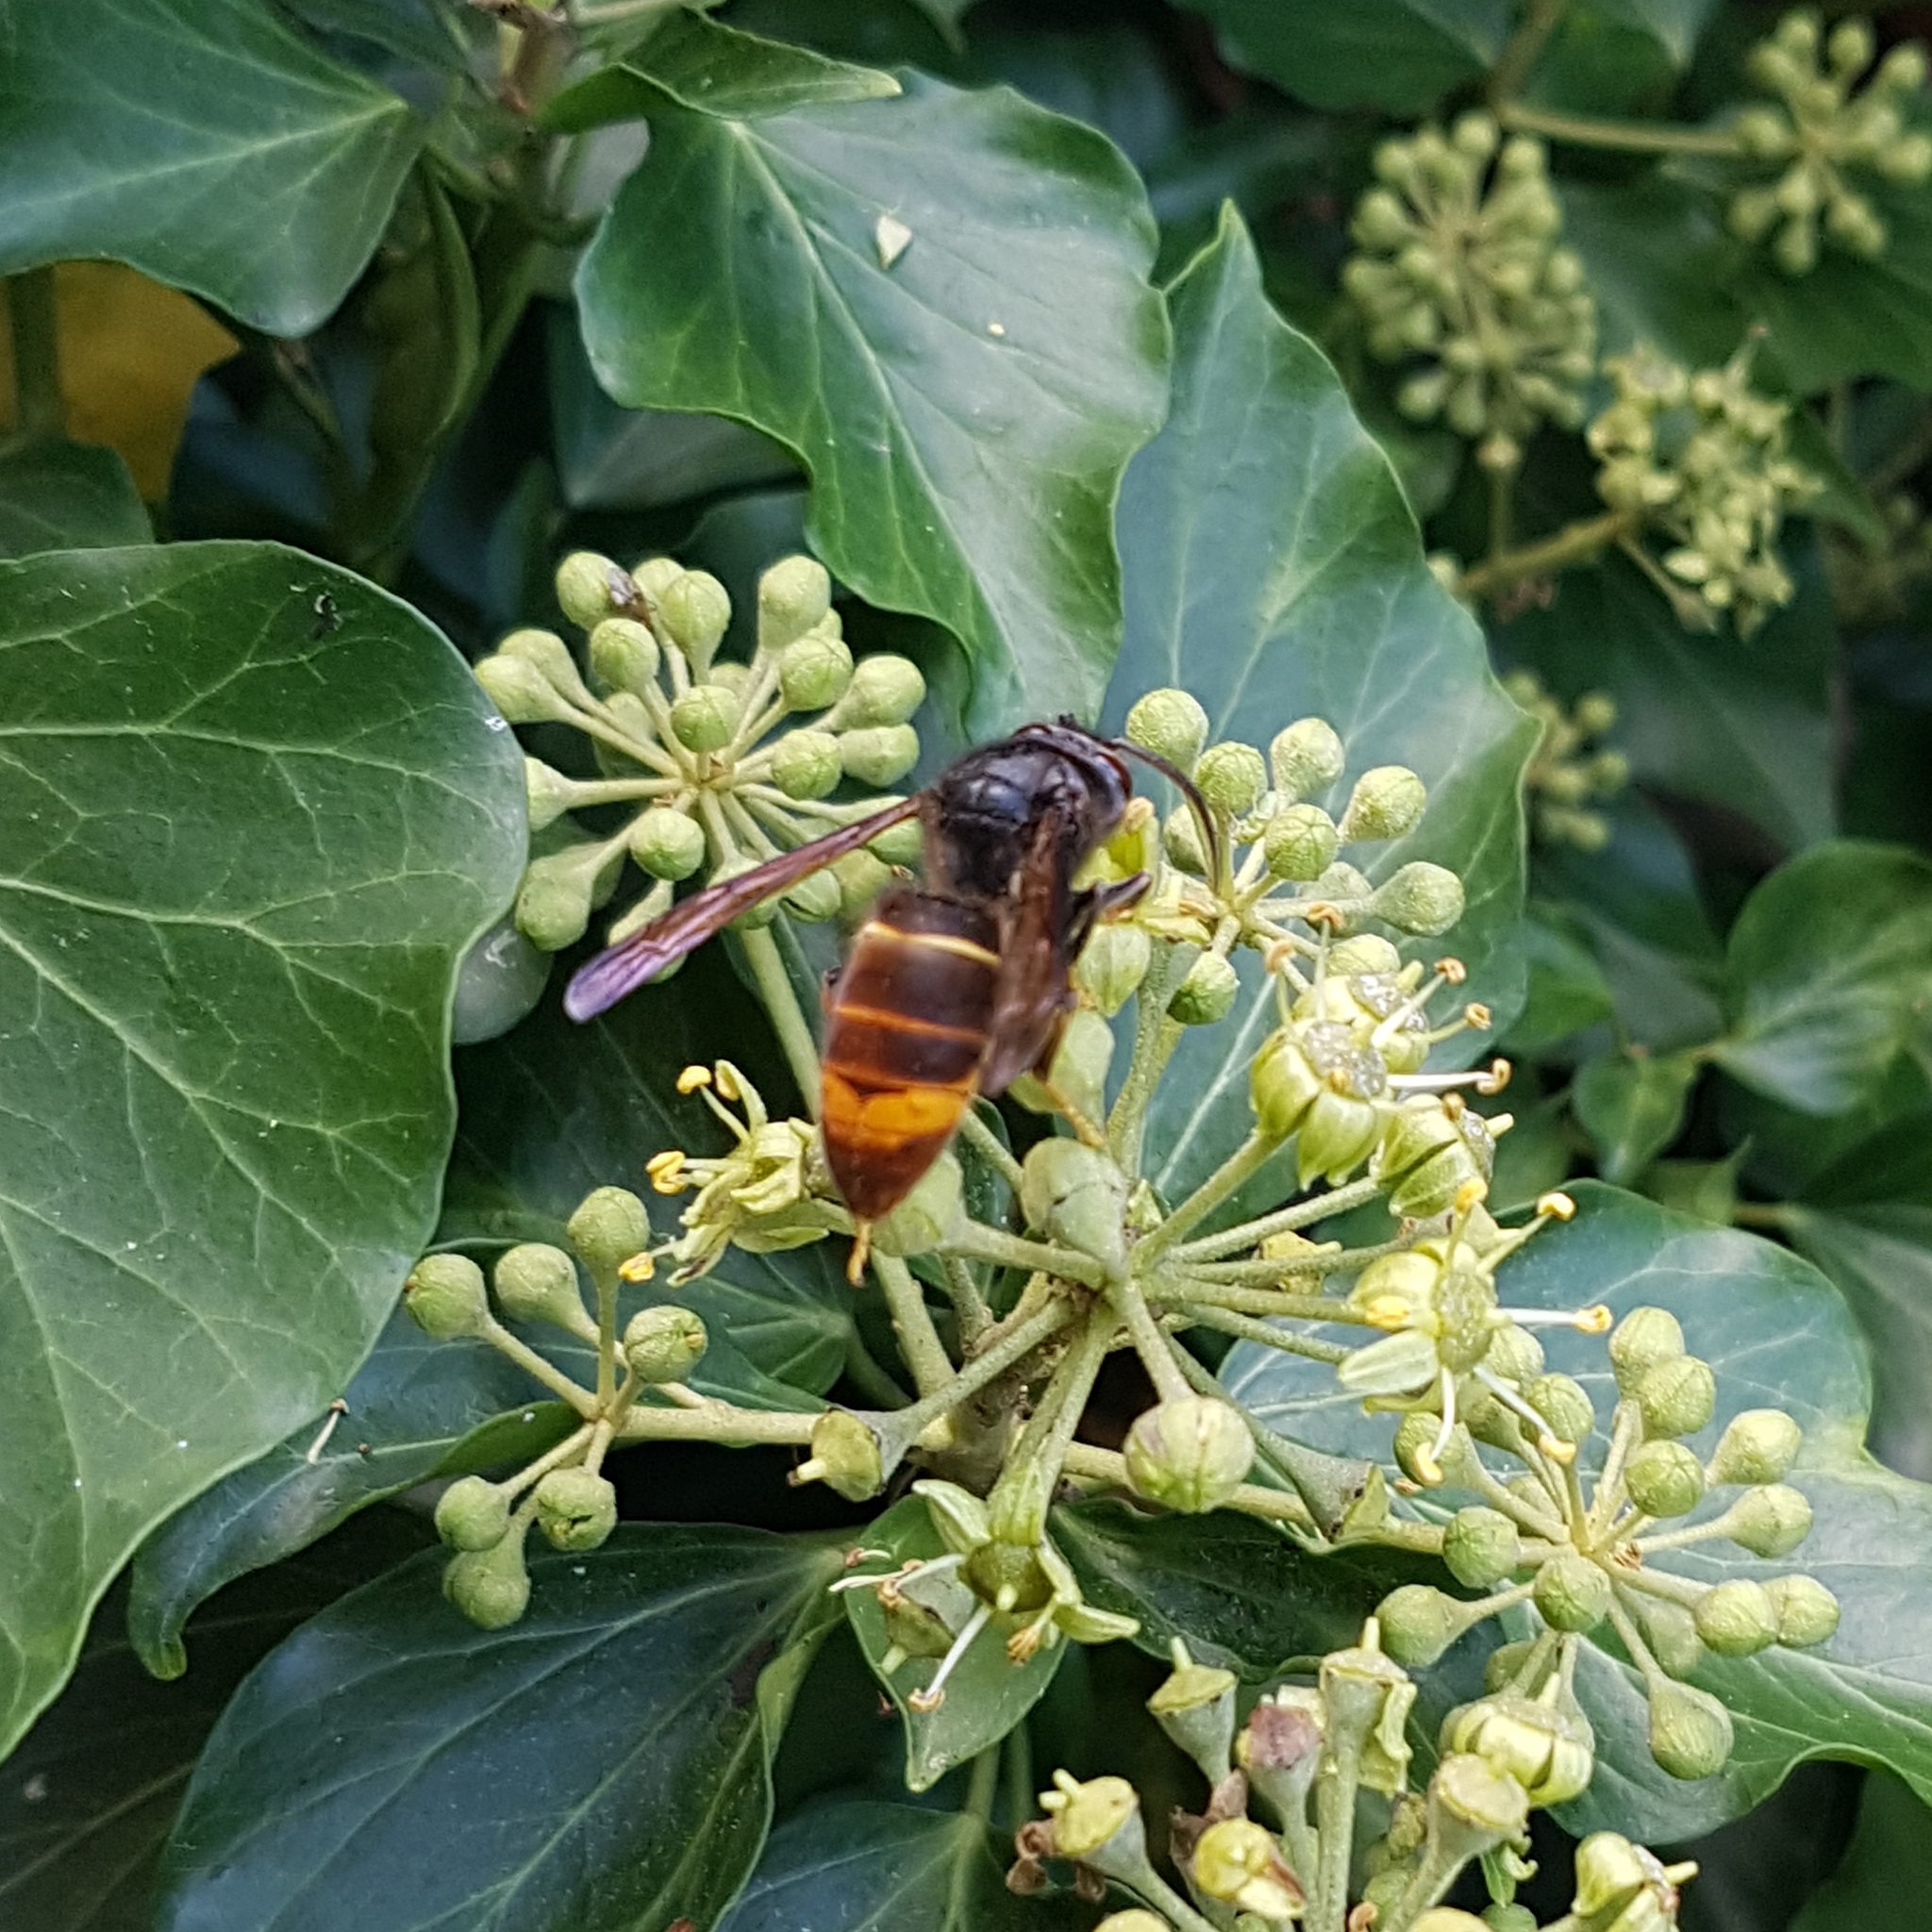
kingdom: Animalia
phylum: Arthropoda
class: Insecta
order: Hymenoptera
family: Vespidae
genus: Vespa
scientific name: Vespa velutina
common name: Asian hornet
